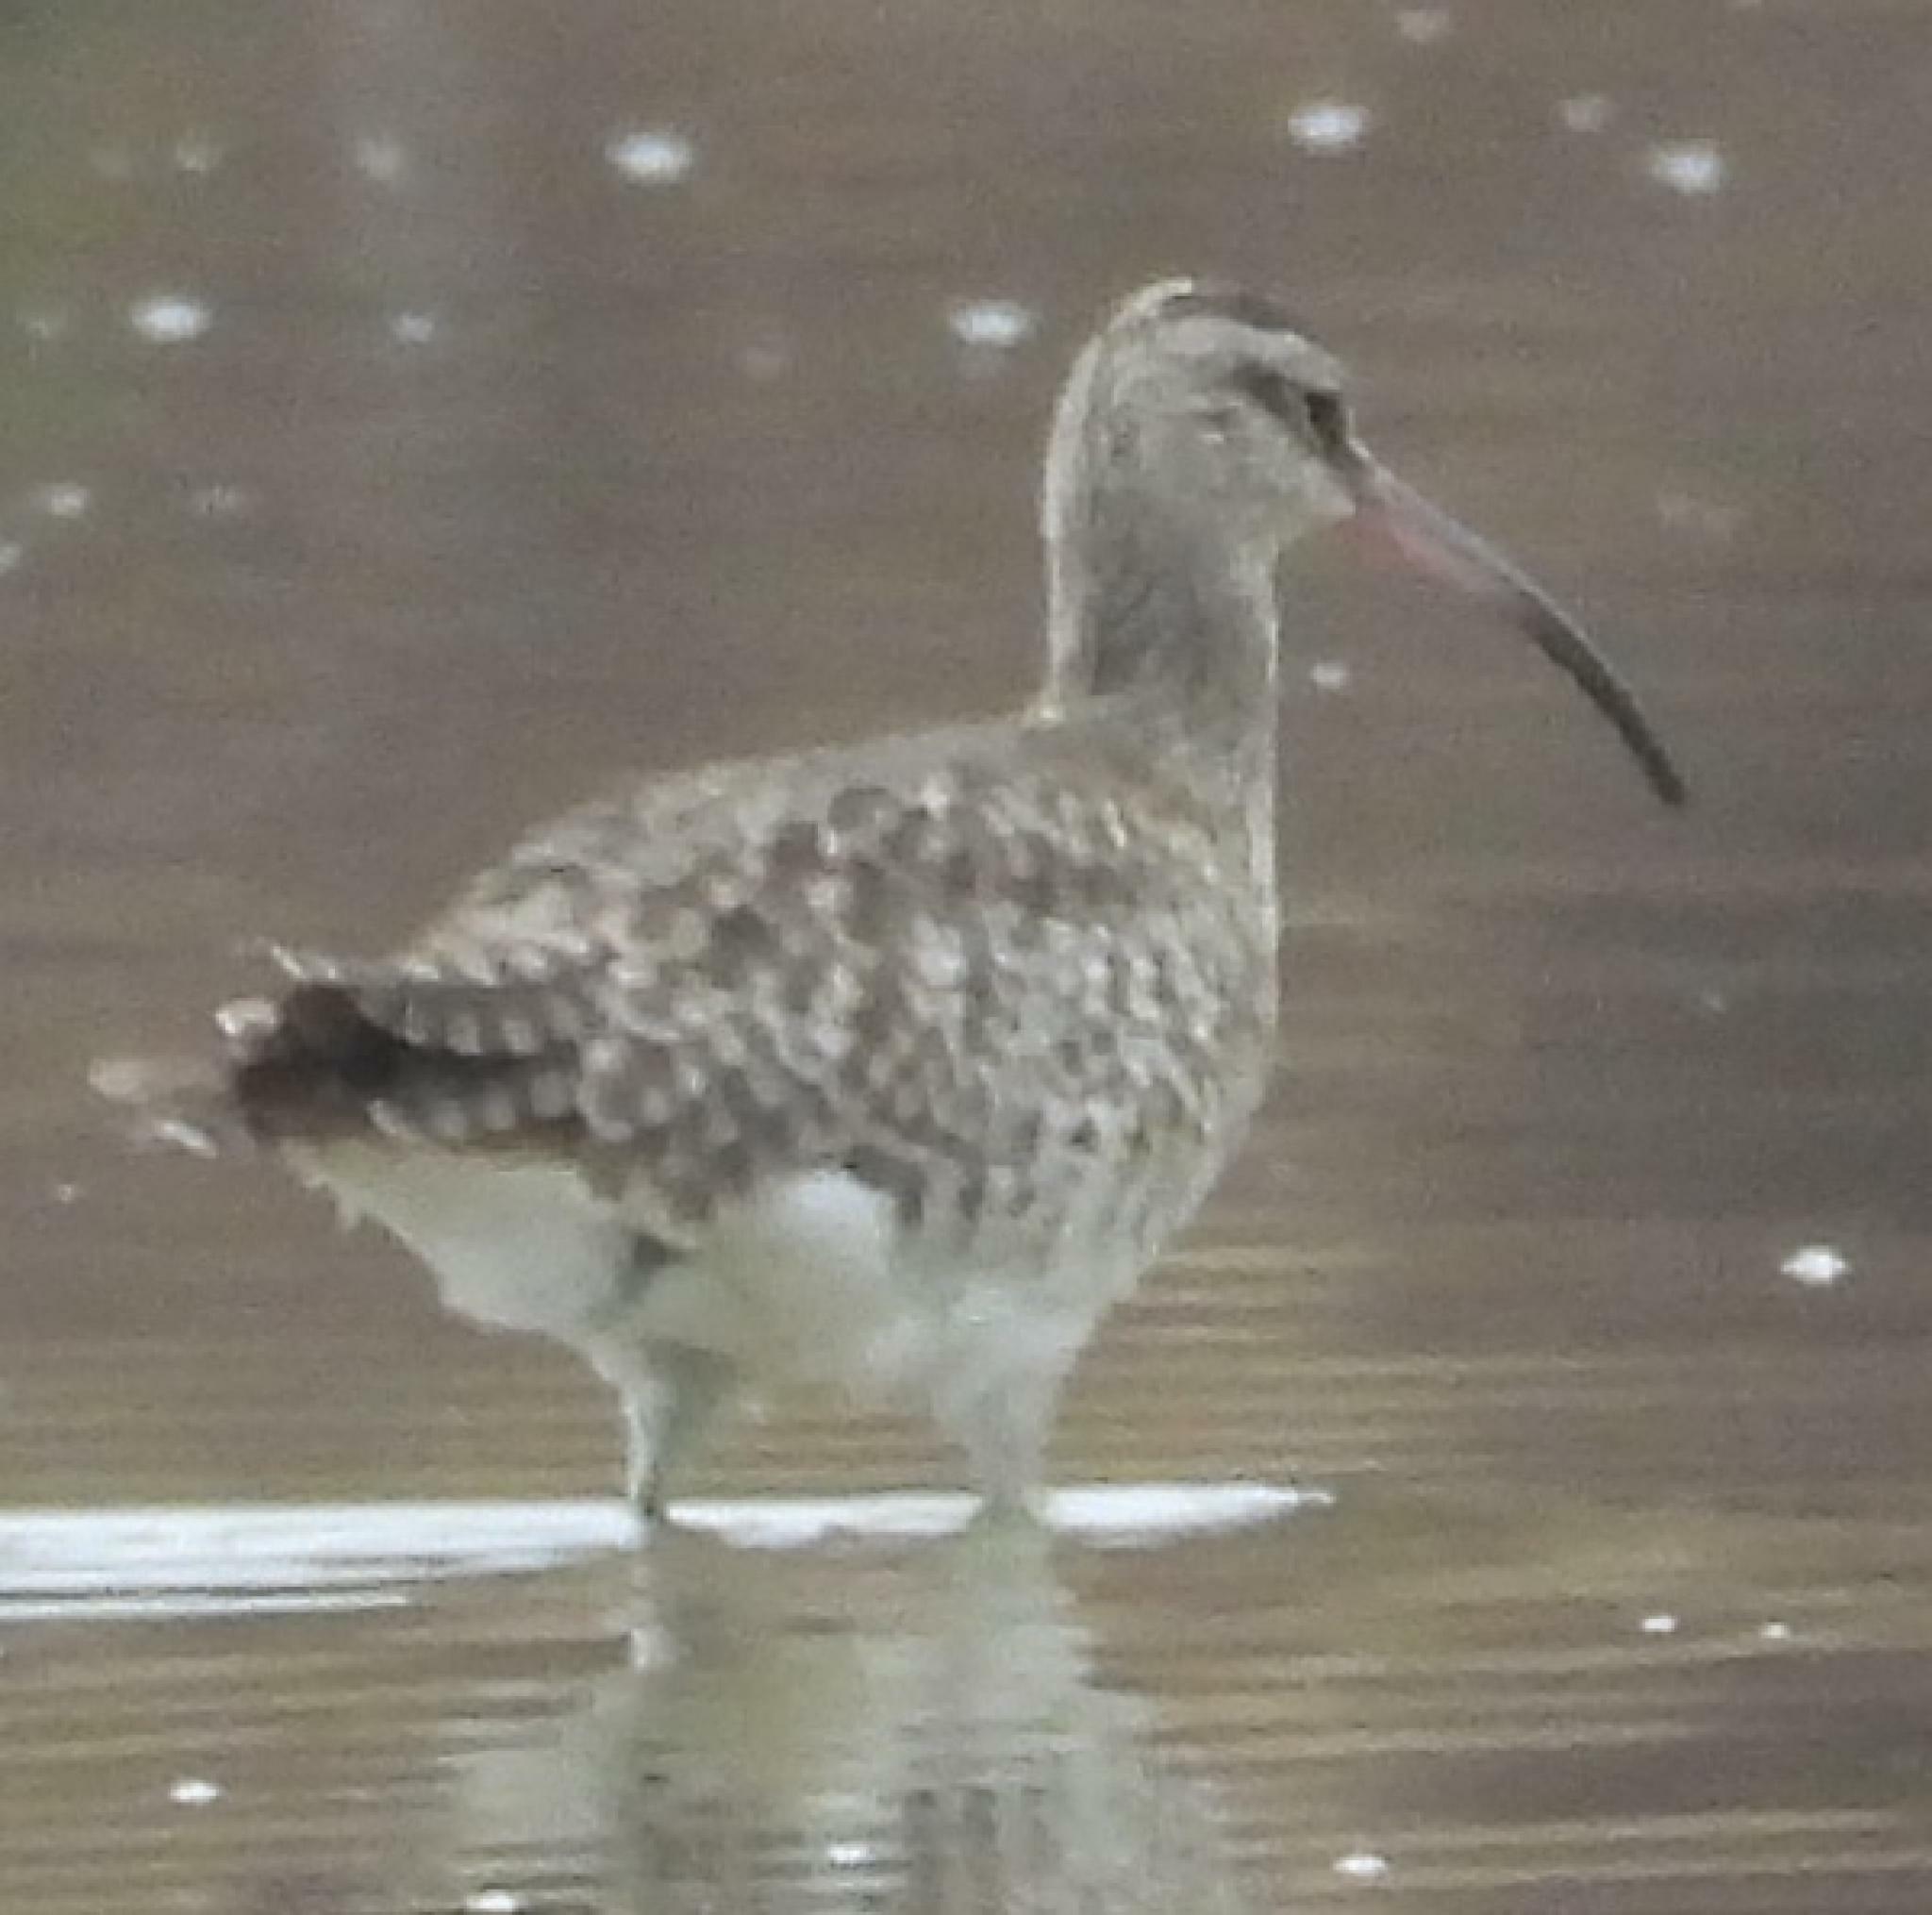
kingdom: Animalia
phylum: Chordata
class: Aves
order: Charadriiformes
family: Scolopacidae
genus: Numenius
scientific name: Numenius phaeopus
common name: Whimbrel
